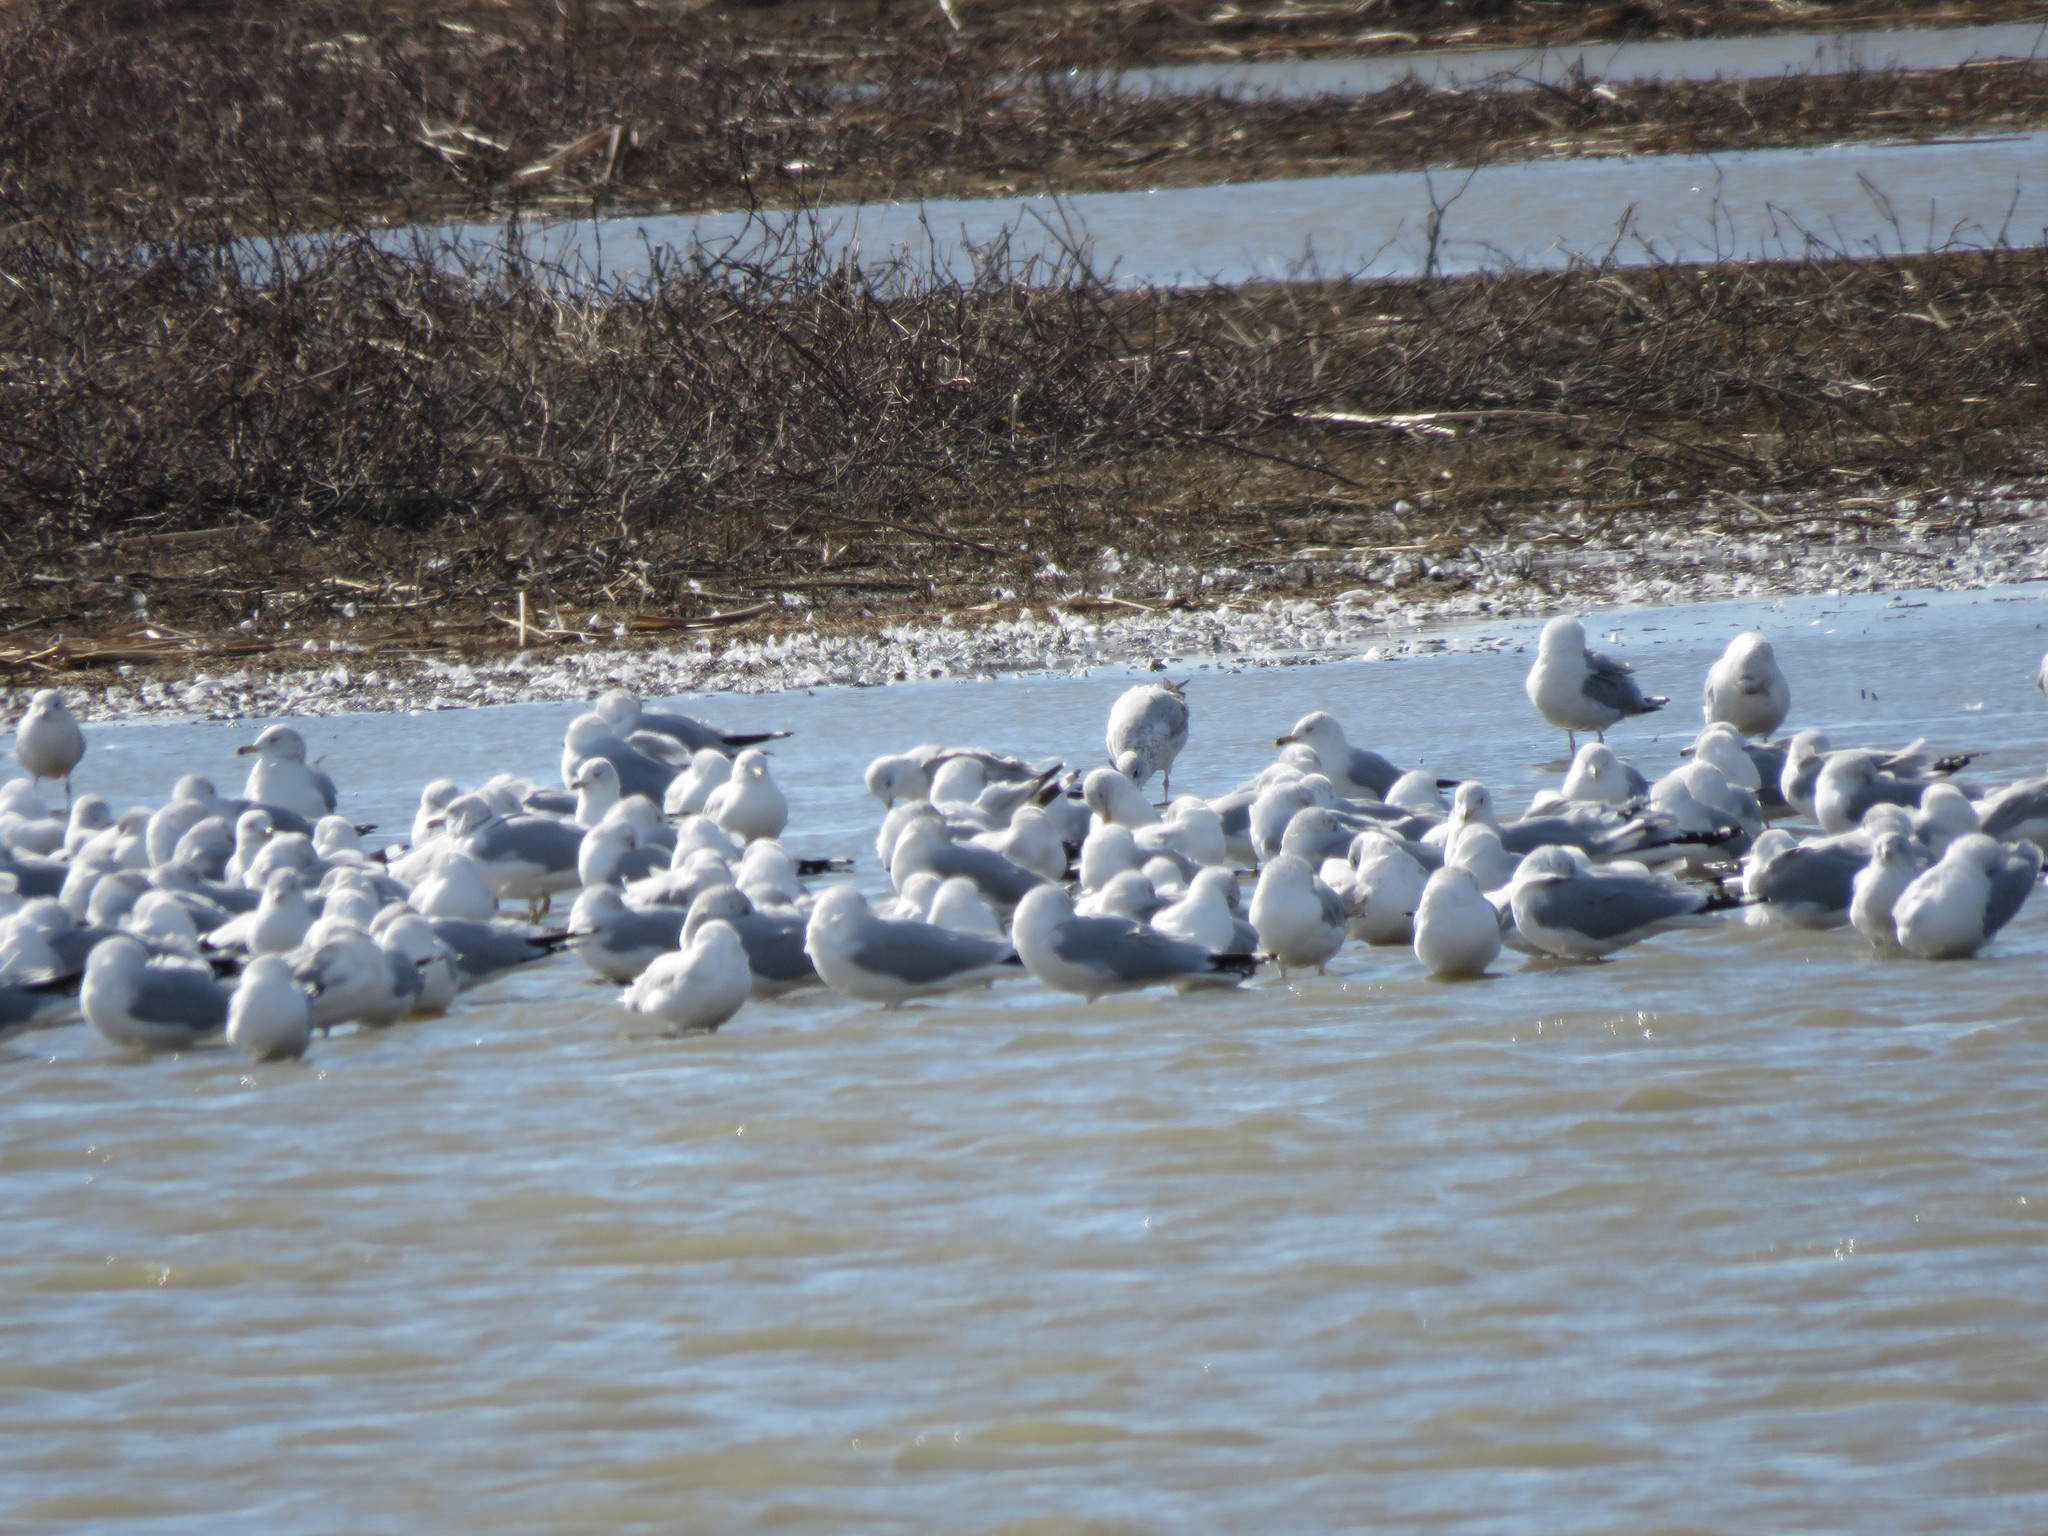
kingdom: Animalia
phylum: Chordata
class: Aves
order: Charadriiformes
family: Laridae
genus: Larus
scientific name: Larus delawarensis
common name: Ring-billed gull
